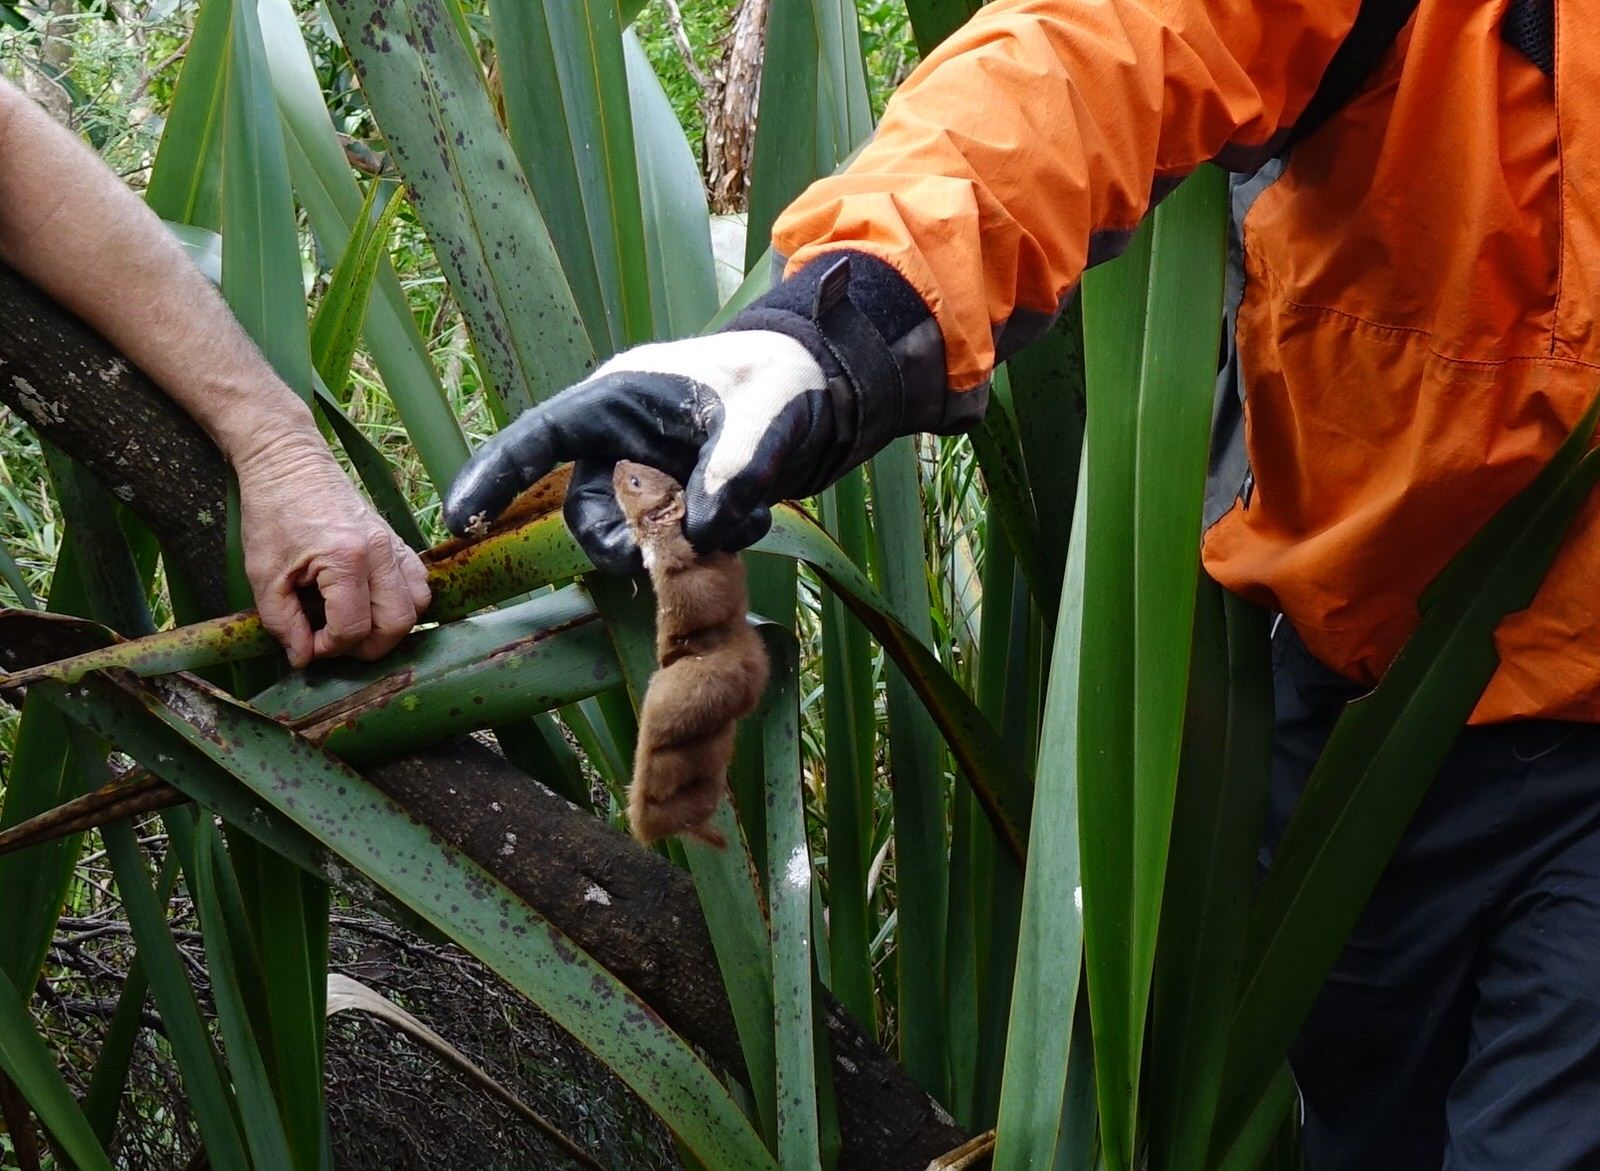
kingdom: Animalia
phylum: Chordata
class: Mammalia
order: Carnivora
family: Mustelidae
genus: Mustela
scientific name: Mustela nivalis
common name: Least weasel
